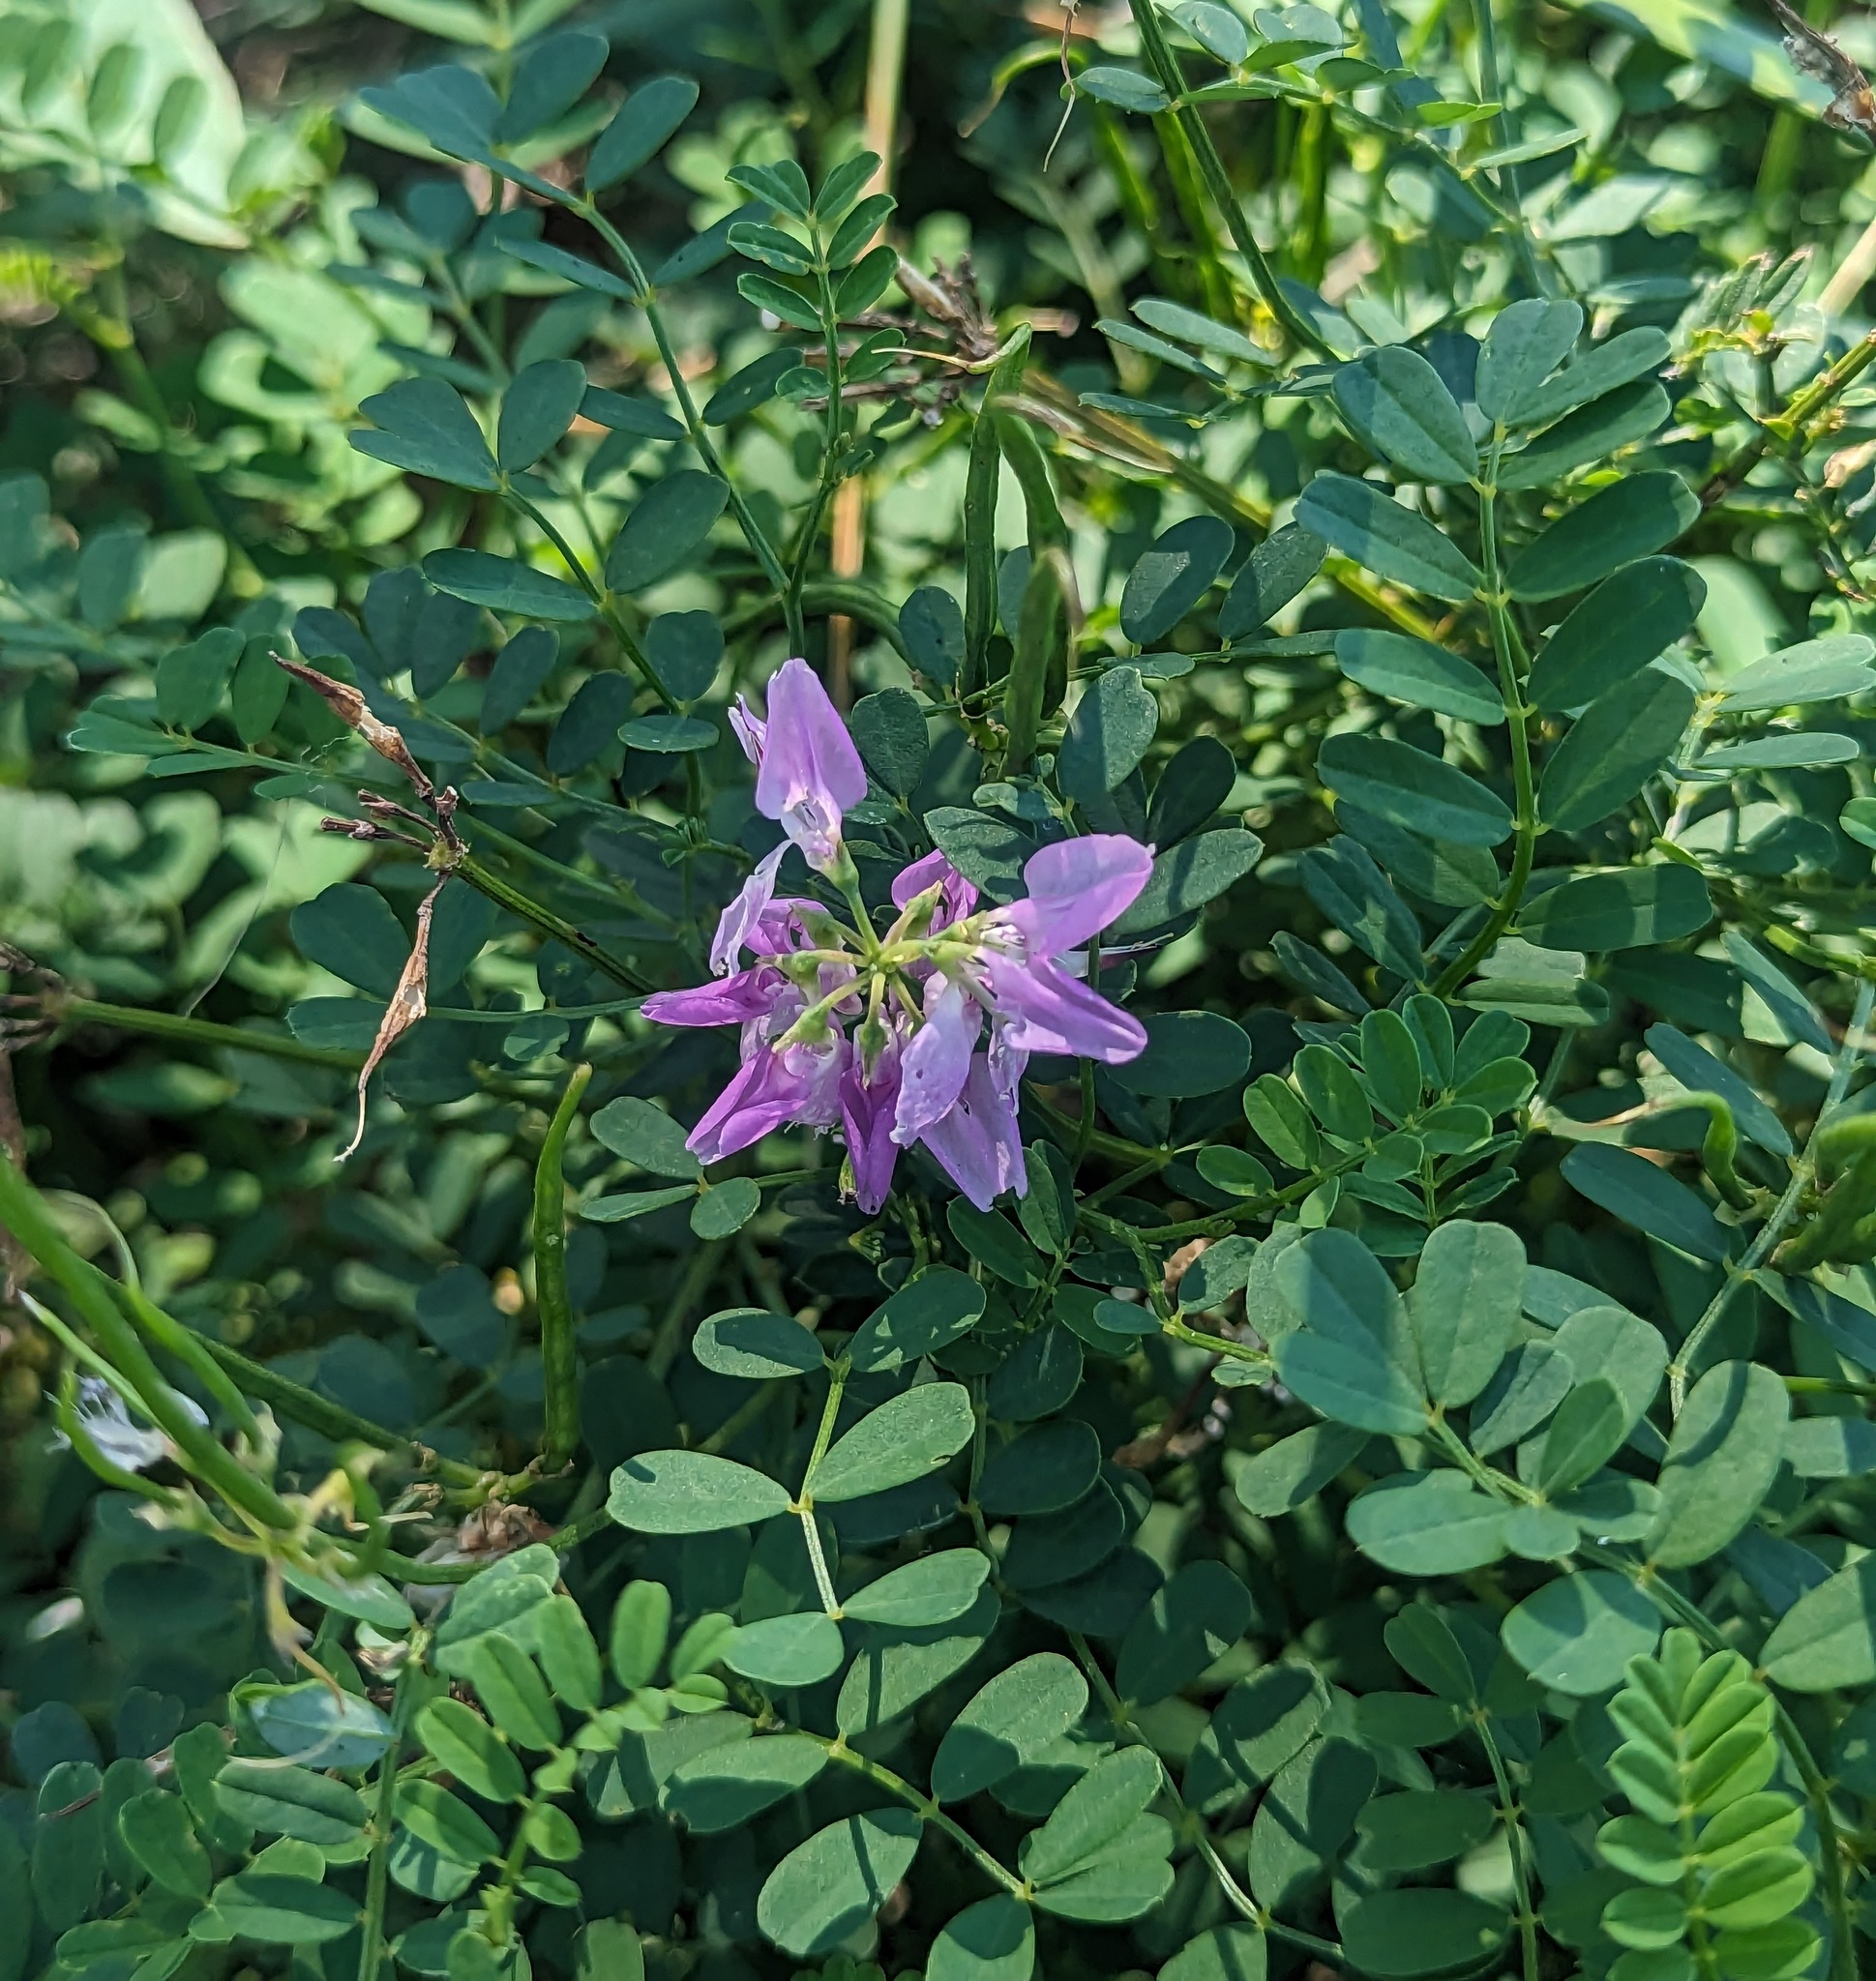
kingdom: Plantae
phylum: Tracheophyta
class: Magnoliopsida
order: Fabales
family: Fabaceae
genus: Coronilla
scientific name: Coronilla varia
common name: Crownvetch
